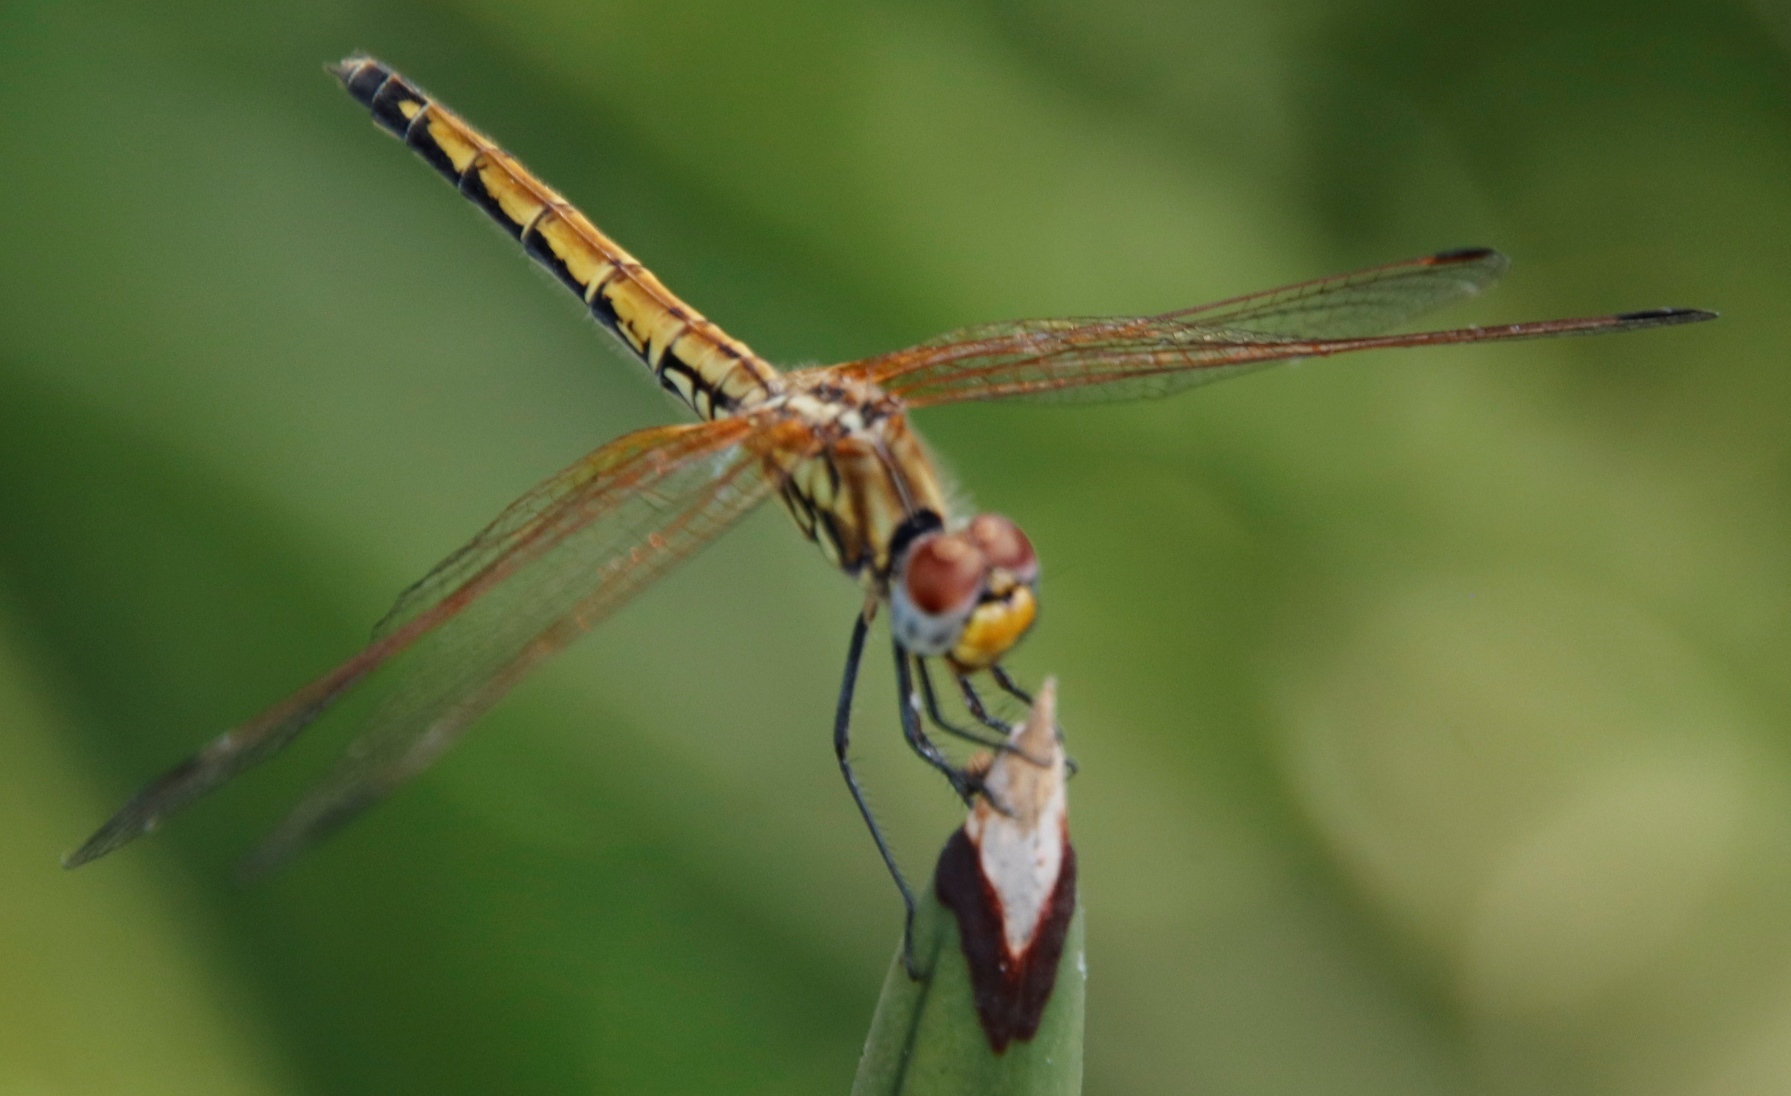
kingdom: Animalia
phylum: Arthropoda
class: Insecta
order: Odonata
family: Libellulidae
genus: Trithemis
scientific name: Trithemis arteriosa
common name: Red-veined dropwing
